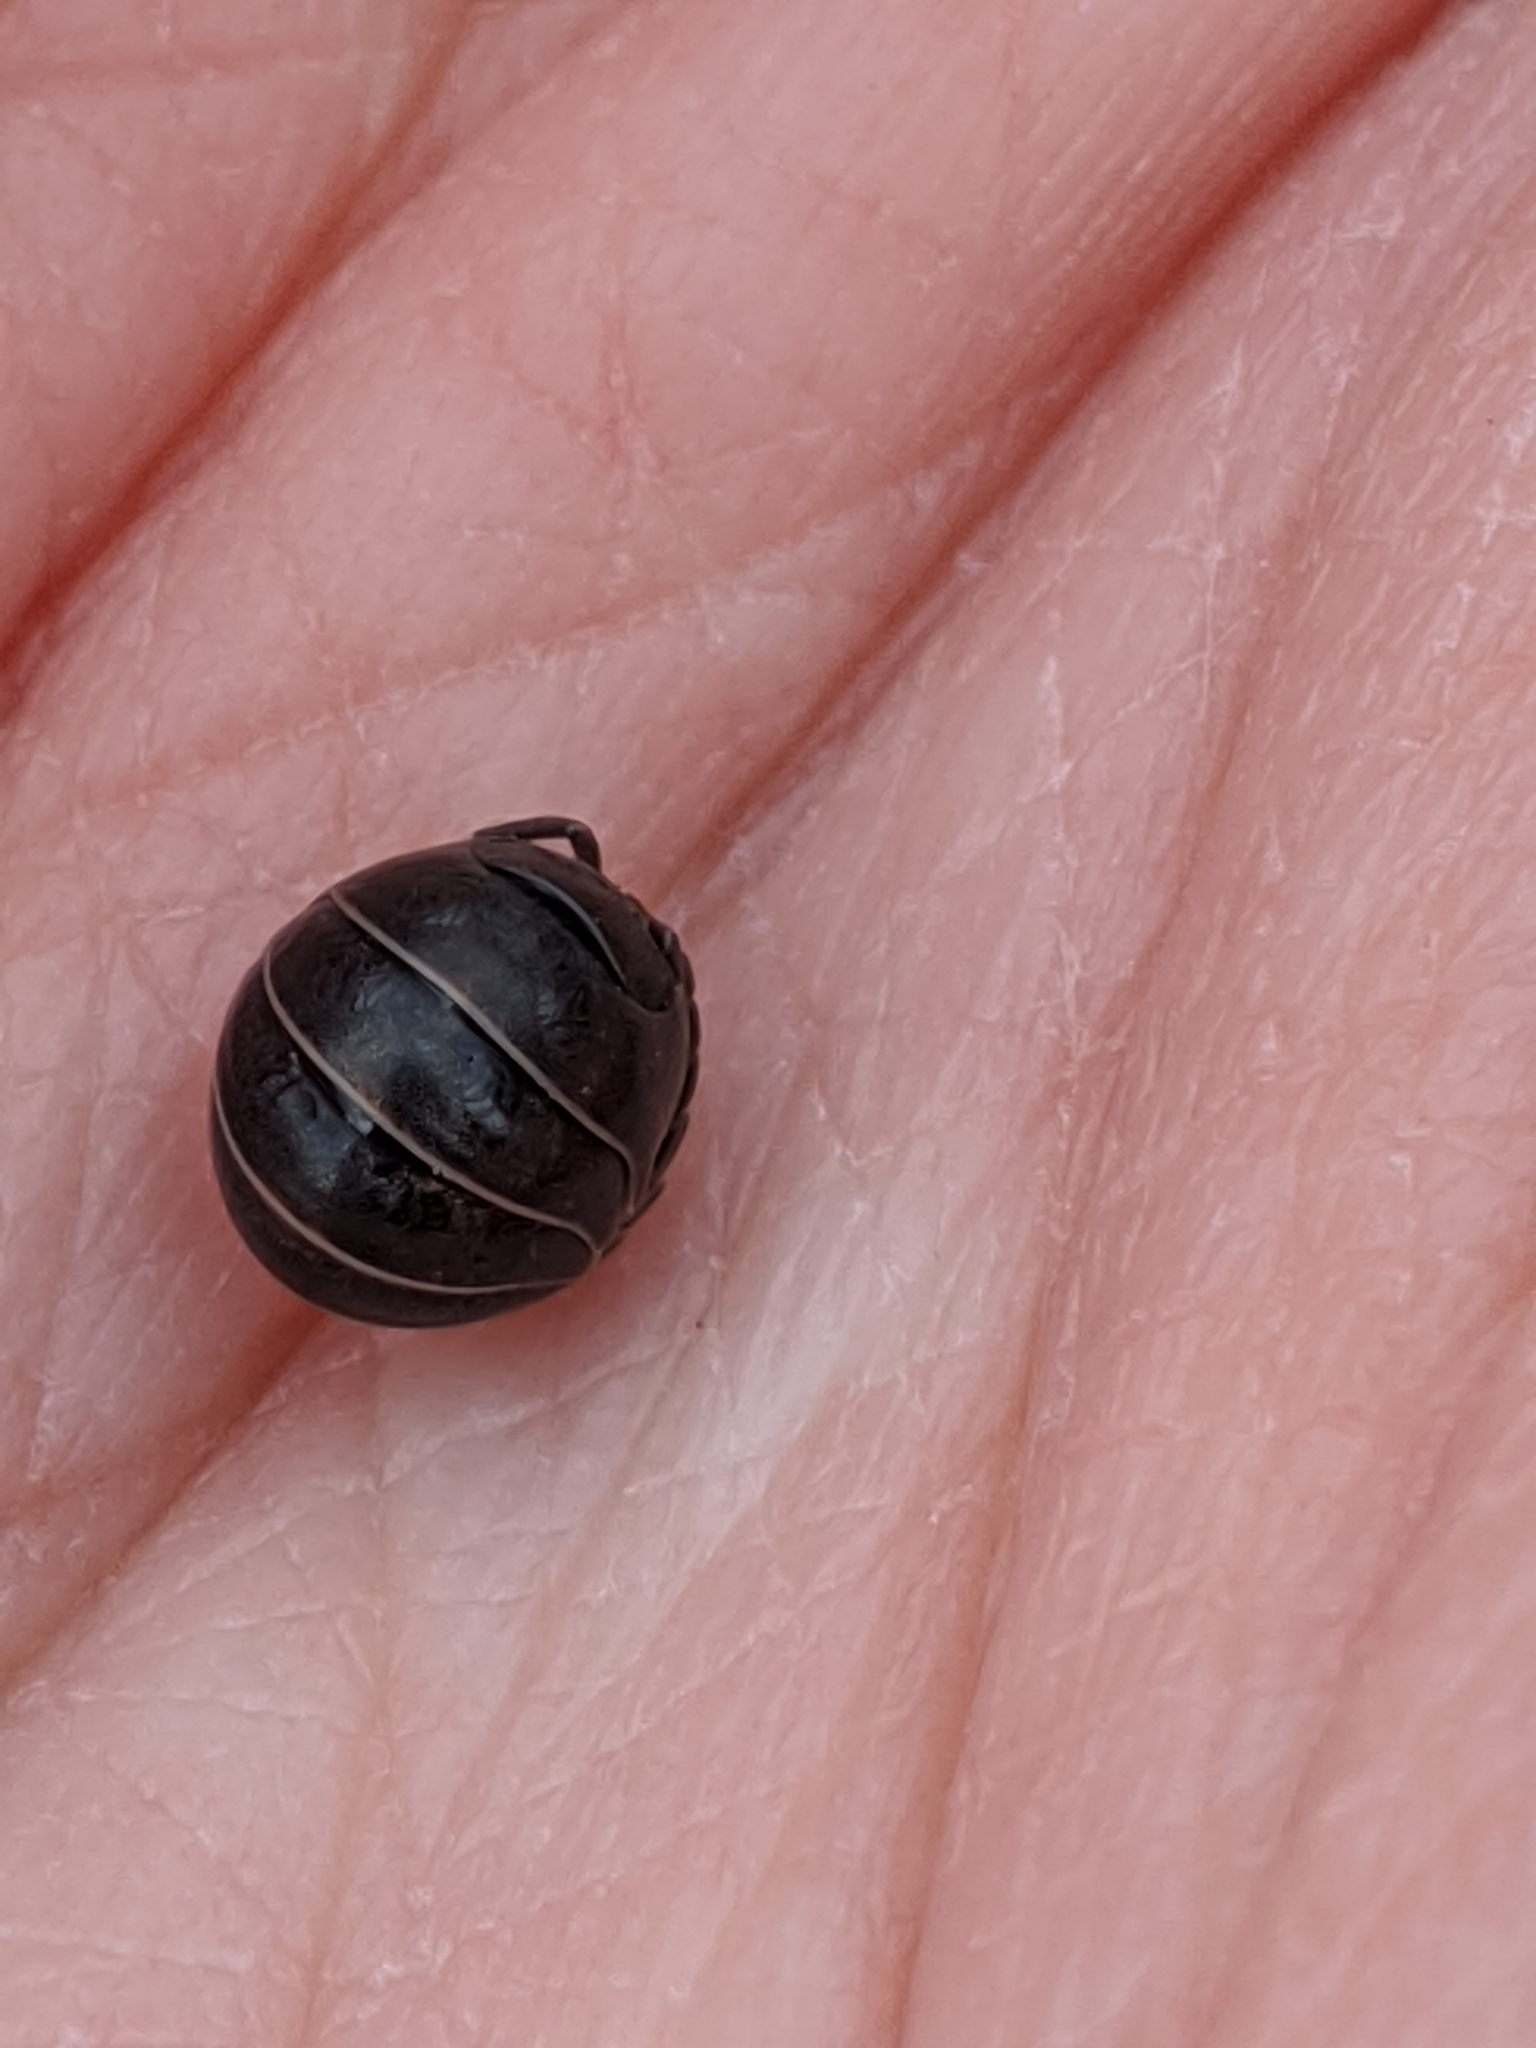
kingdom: Animalia
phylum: Arthropoda
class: Malacostraca
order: Isopoda
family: Armadillidiidae
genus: Armadillidium
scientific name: Armadillidium vulgare
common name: Common pill woodlouse
